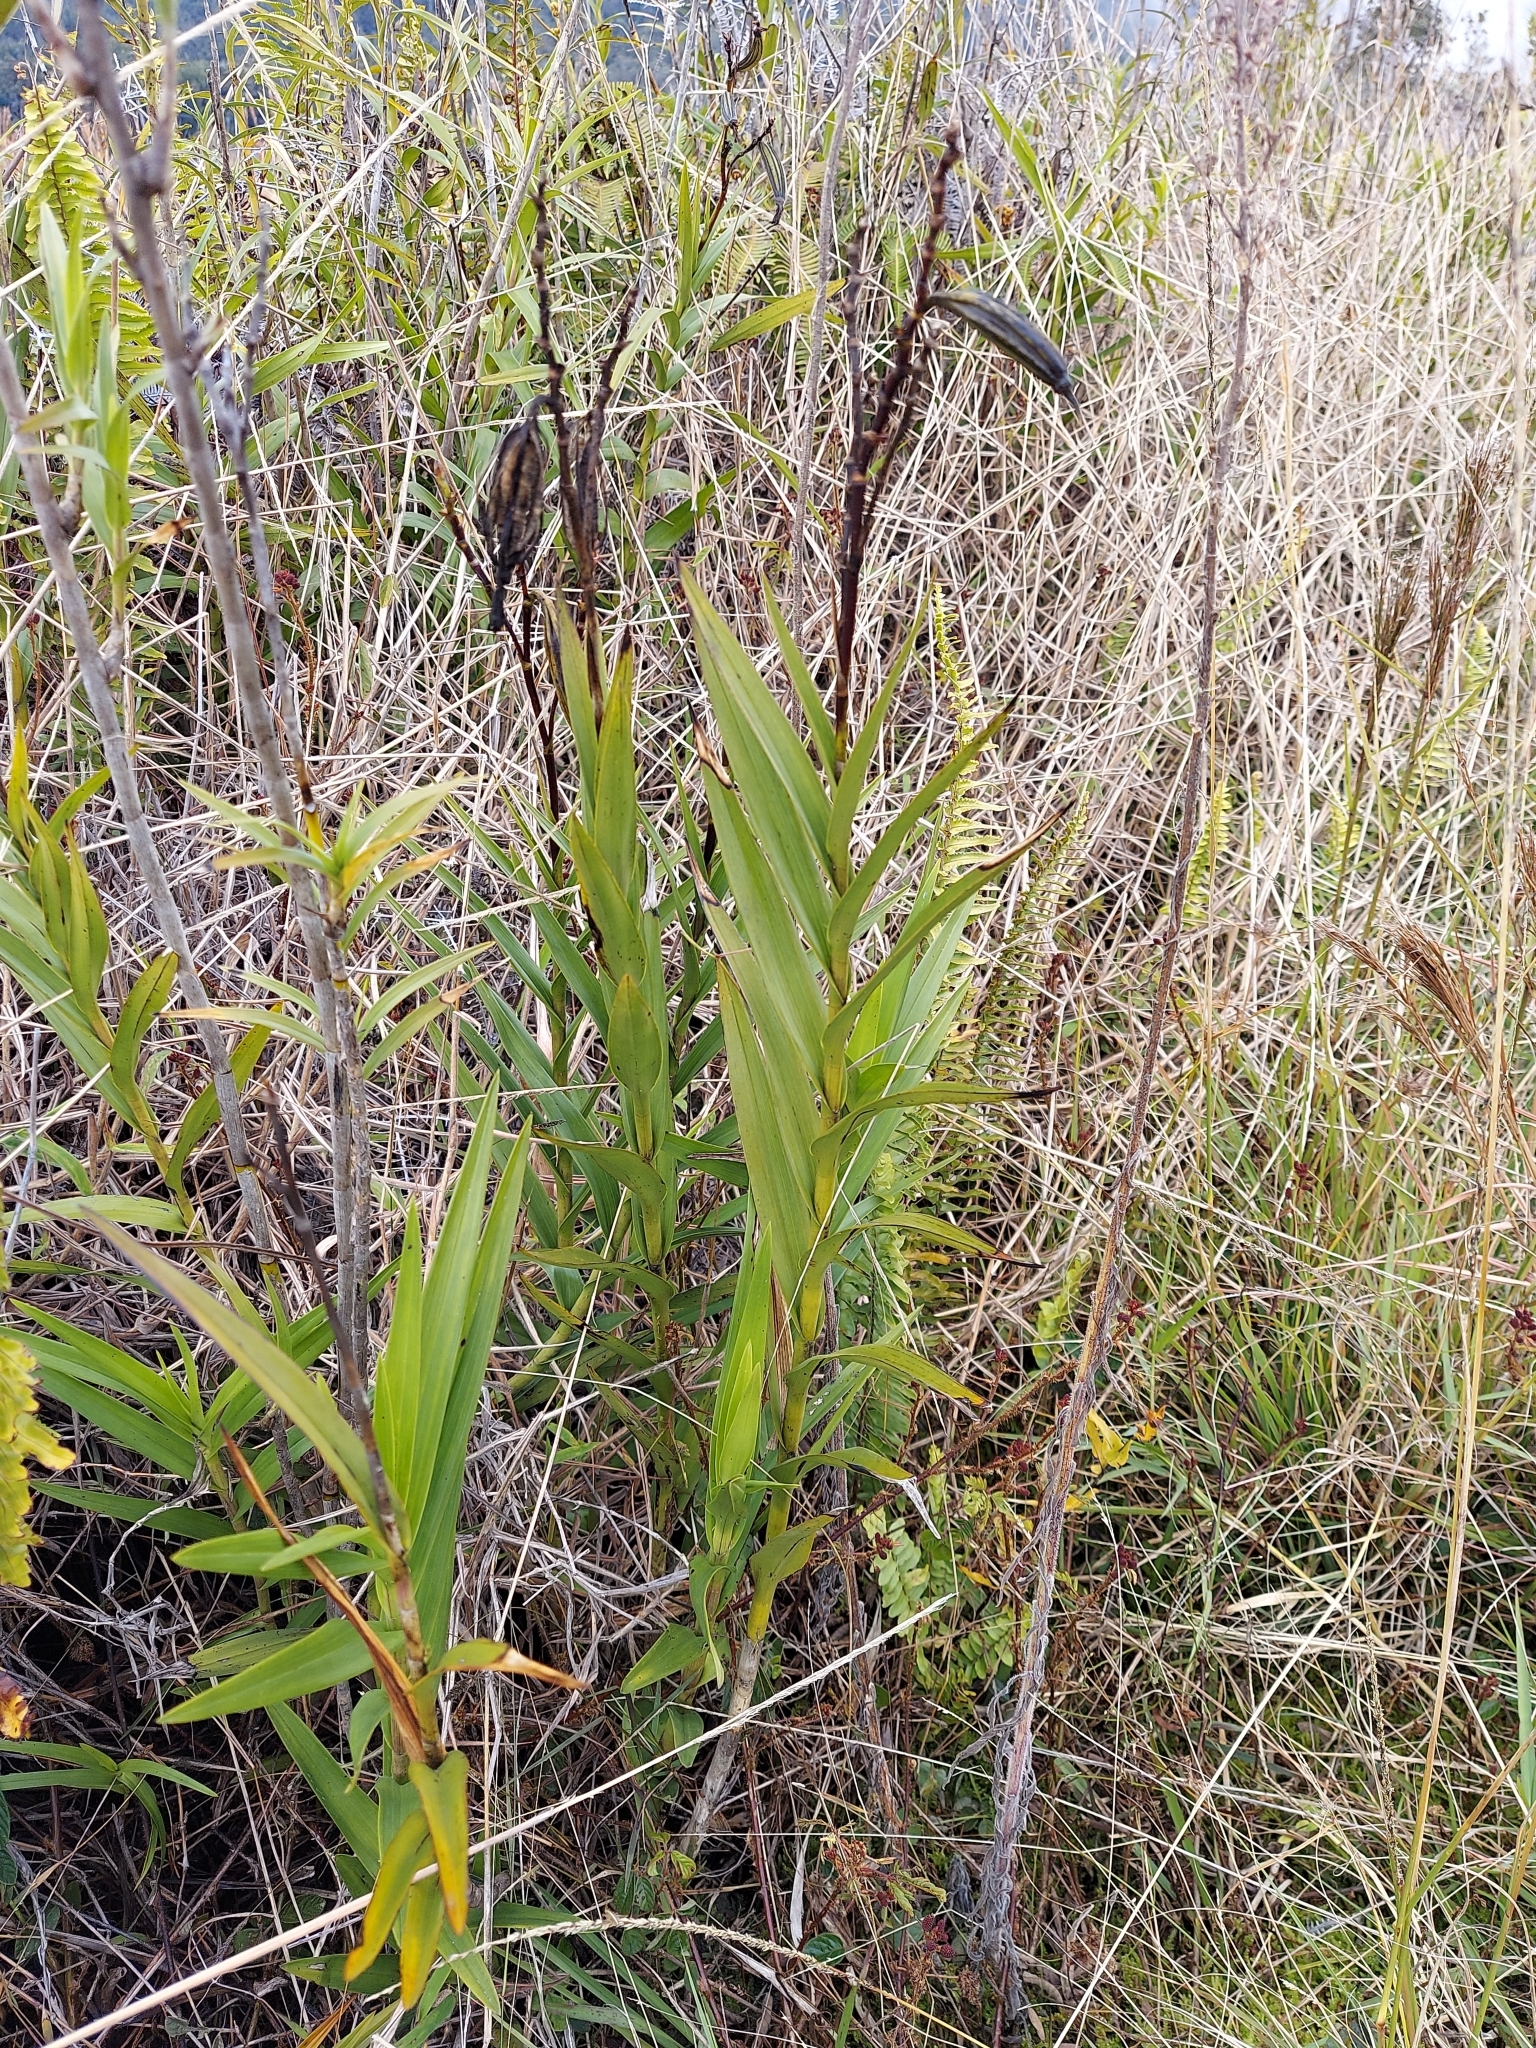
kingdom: Plantae
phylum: Tracheophyta
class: Liliopsida
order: Asparagales
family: Orchidaceae
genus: Arundina
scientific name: Arundina graminifolia
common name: Bamboo orchid
